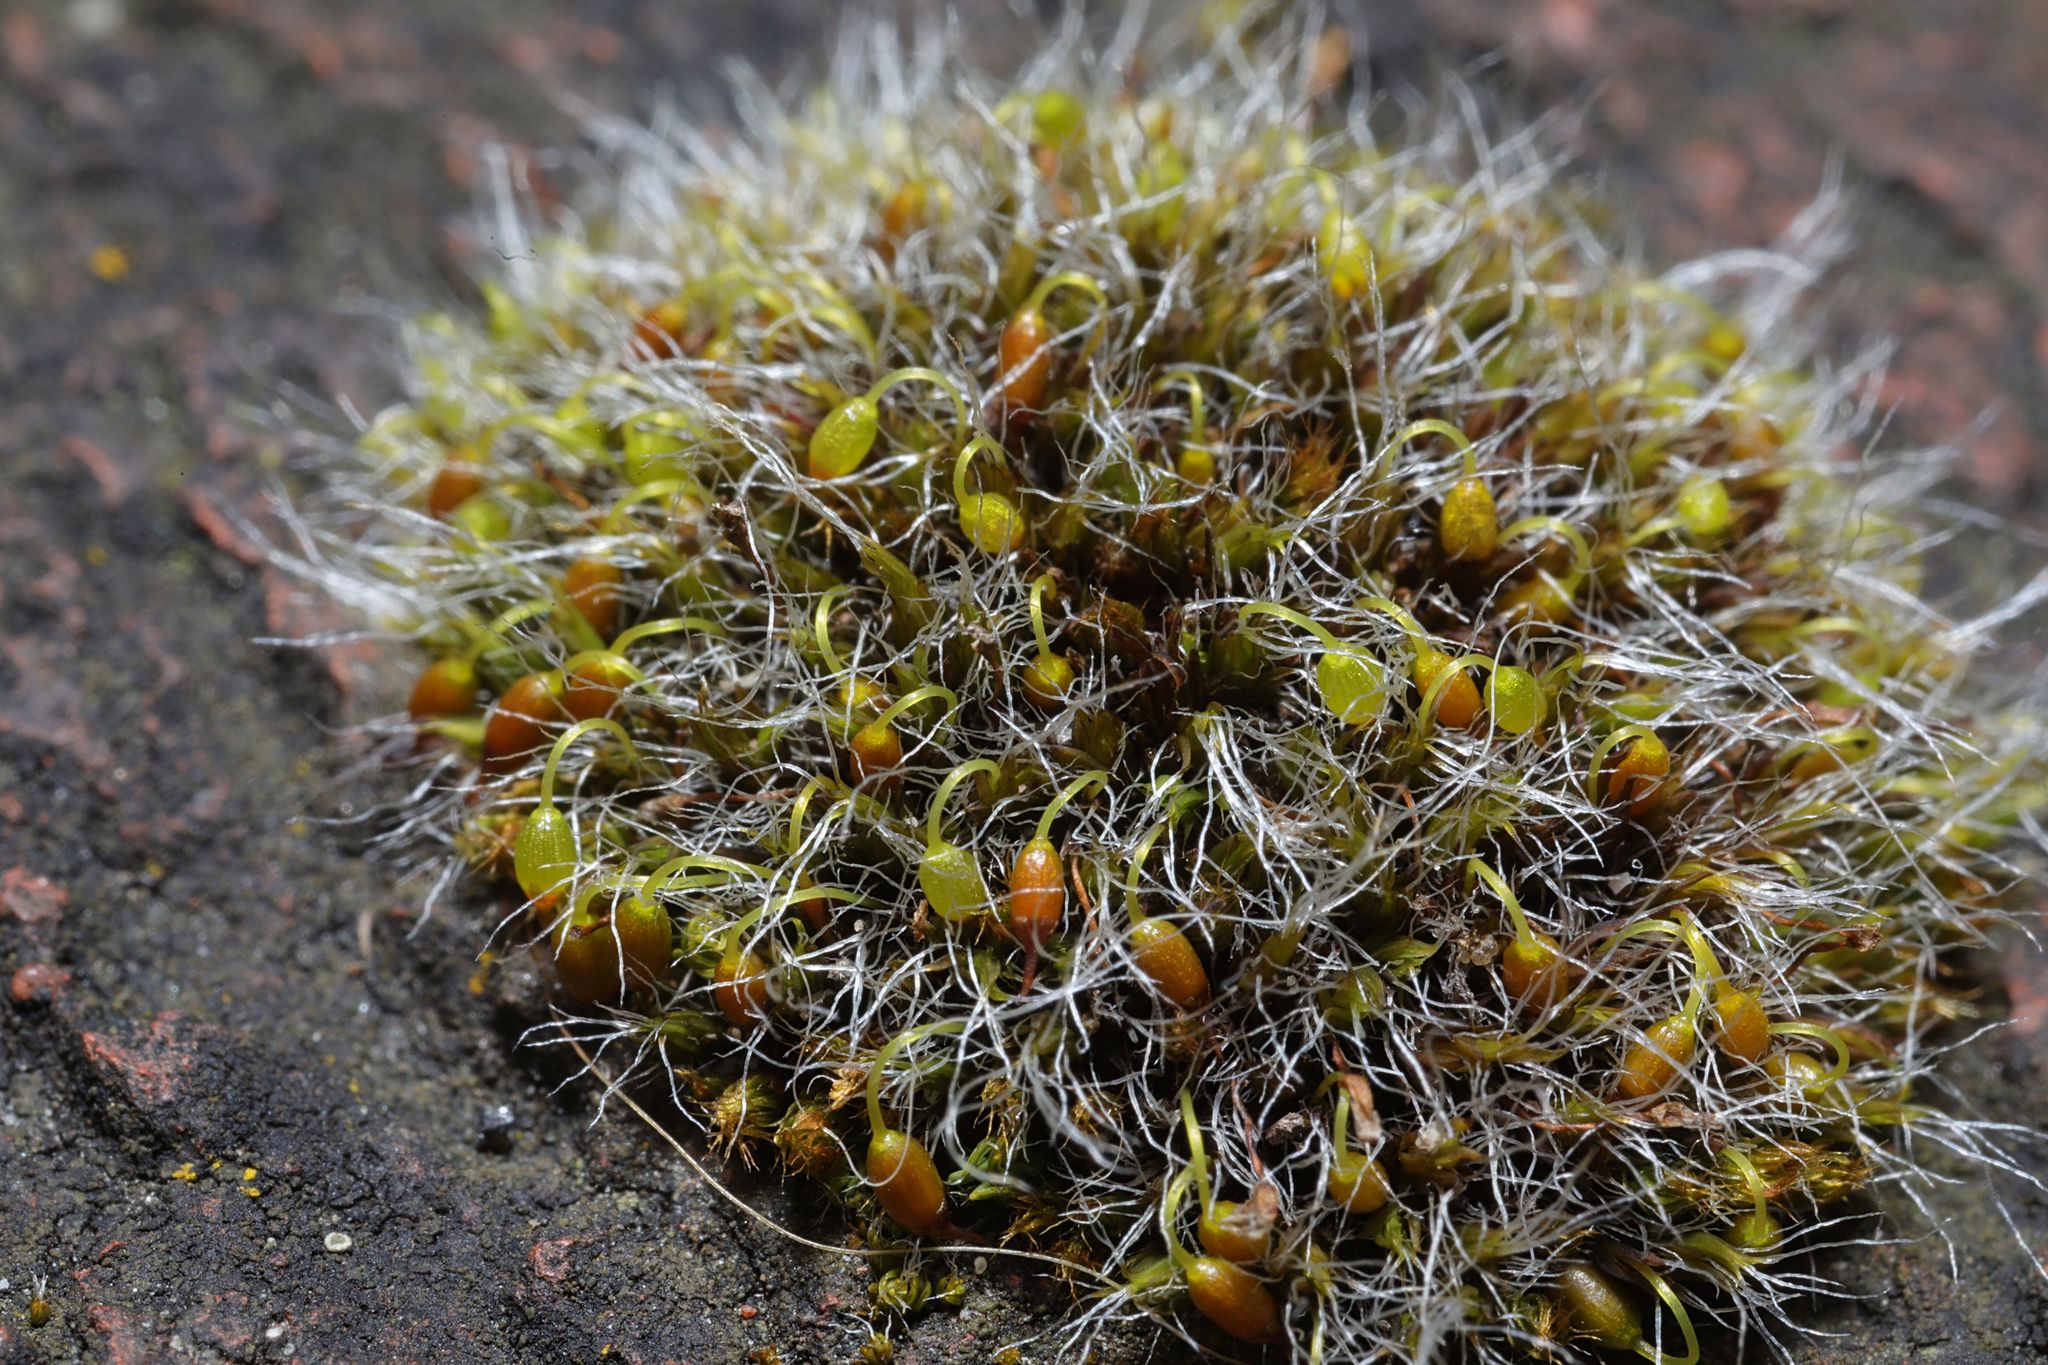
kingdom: Plantae
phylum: Bryophyta
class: Bryopsida
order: Grimmiales
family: Grimmiaceae
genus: Grimmia
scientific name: Grimmia pulvinata
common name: Grey-cushioned grimmia
